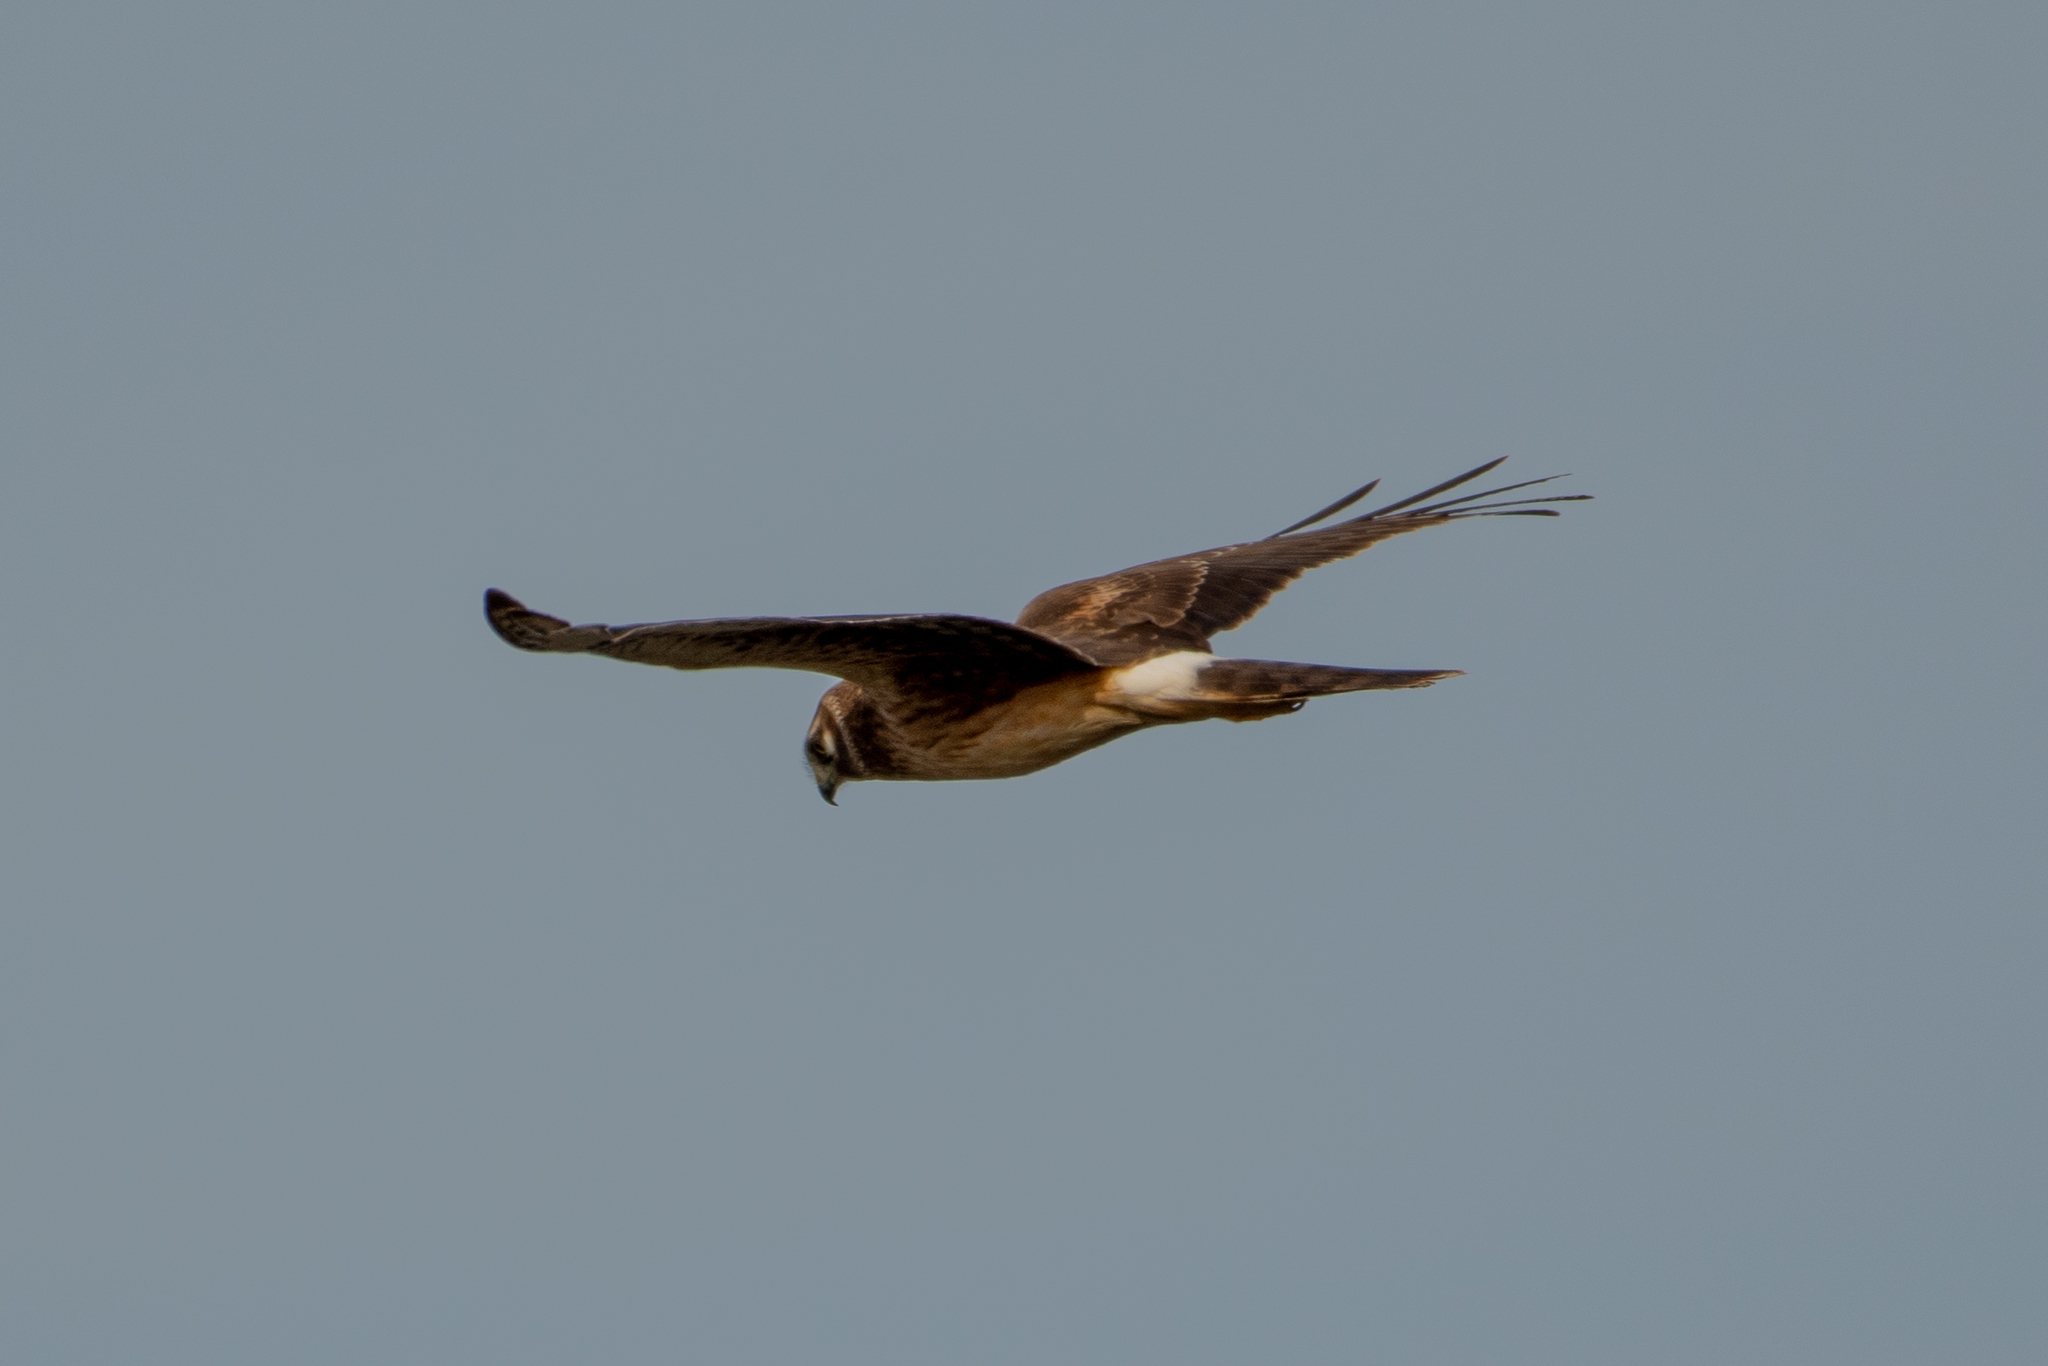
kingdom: Animalia
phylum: Chordata
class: Aves
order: Accipitriformes
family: Accipitridae
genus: Circus
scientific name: Circus cyaneus
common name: Hen harrier
